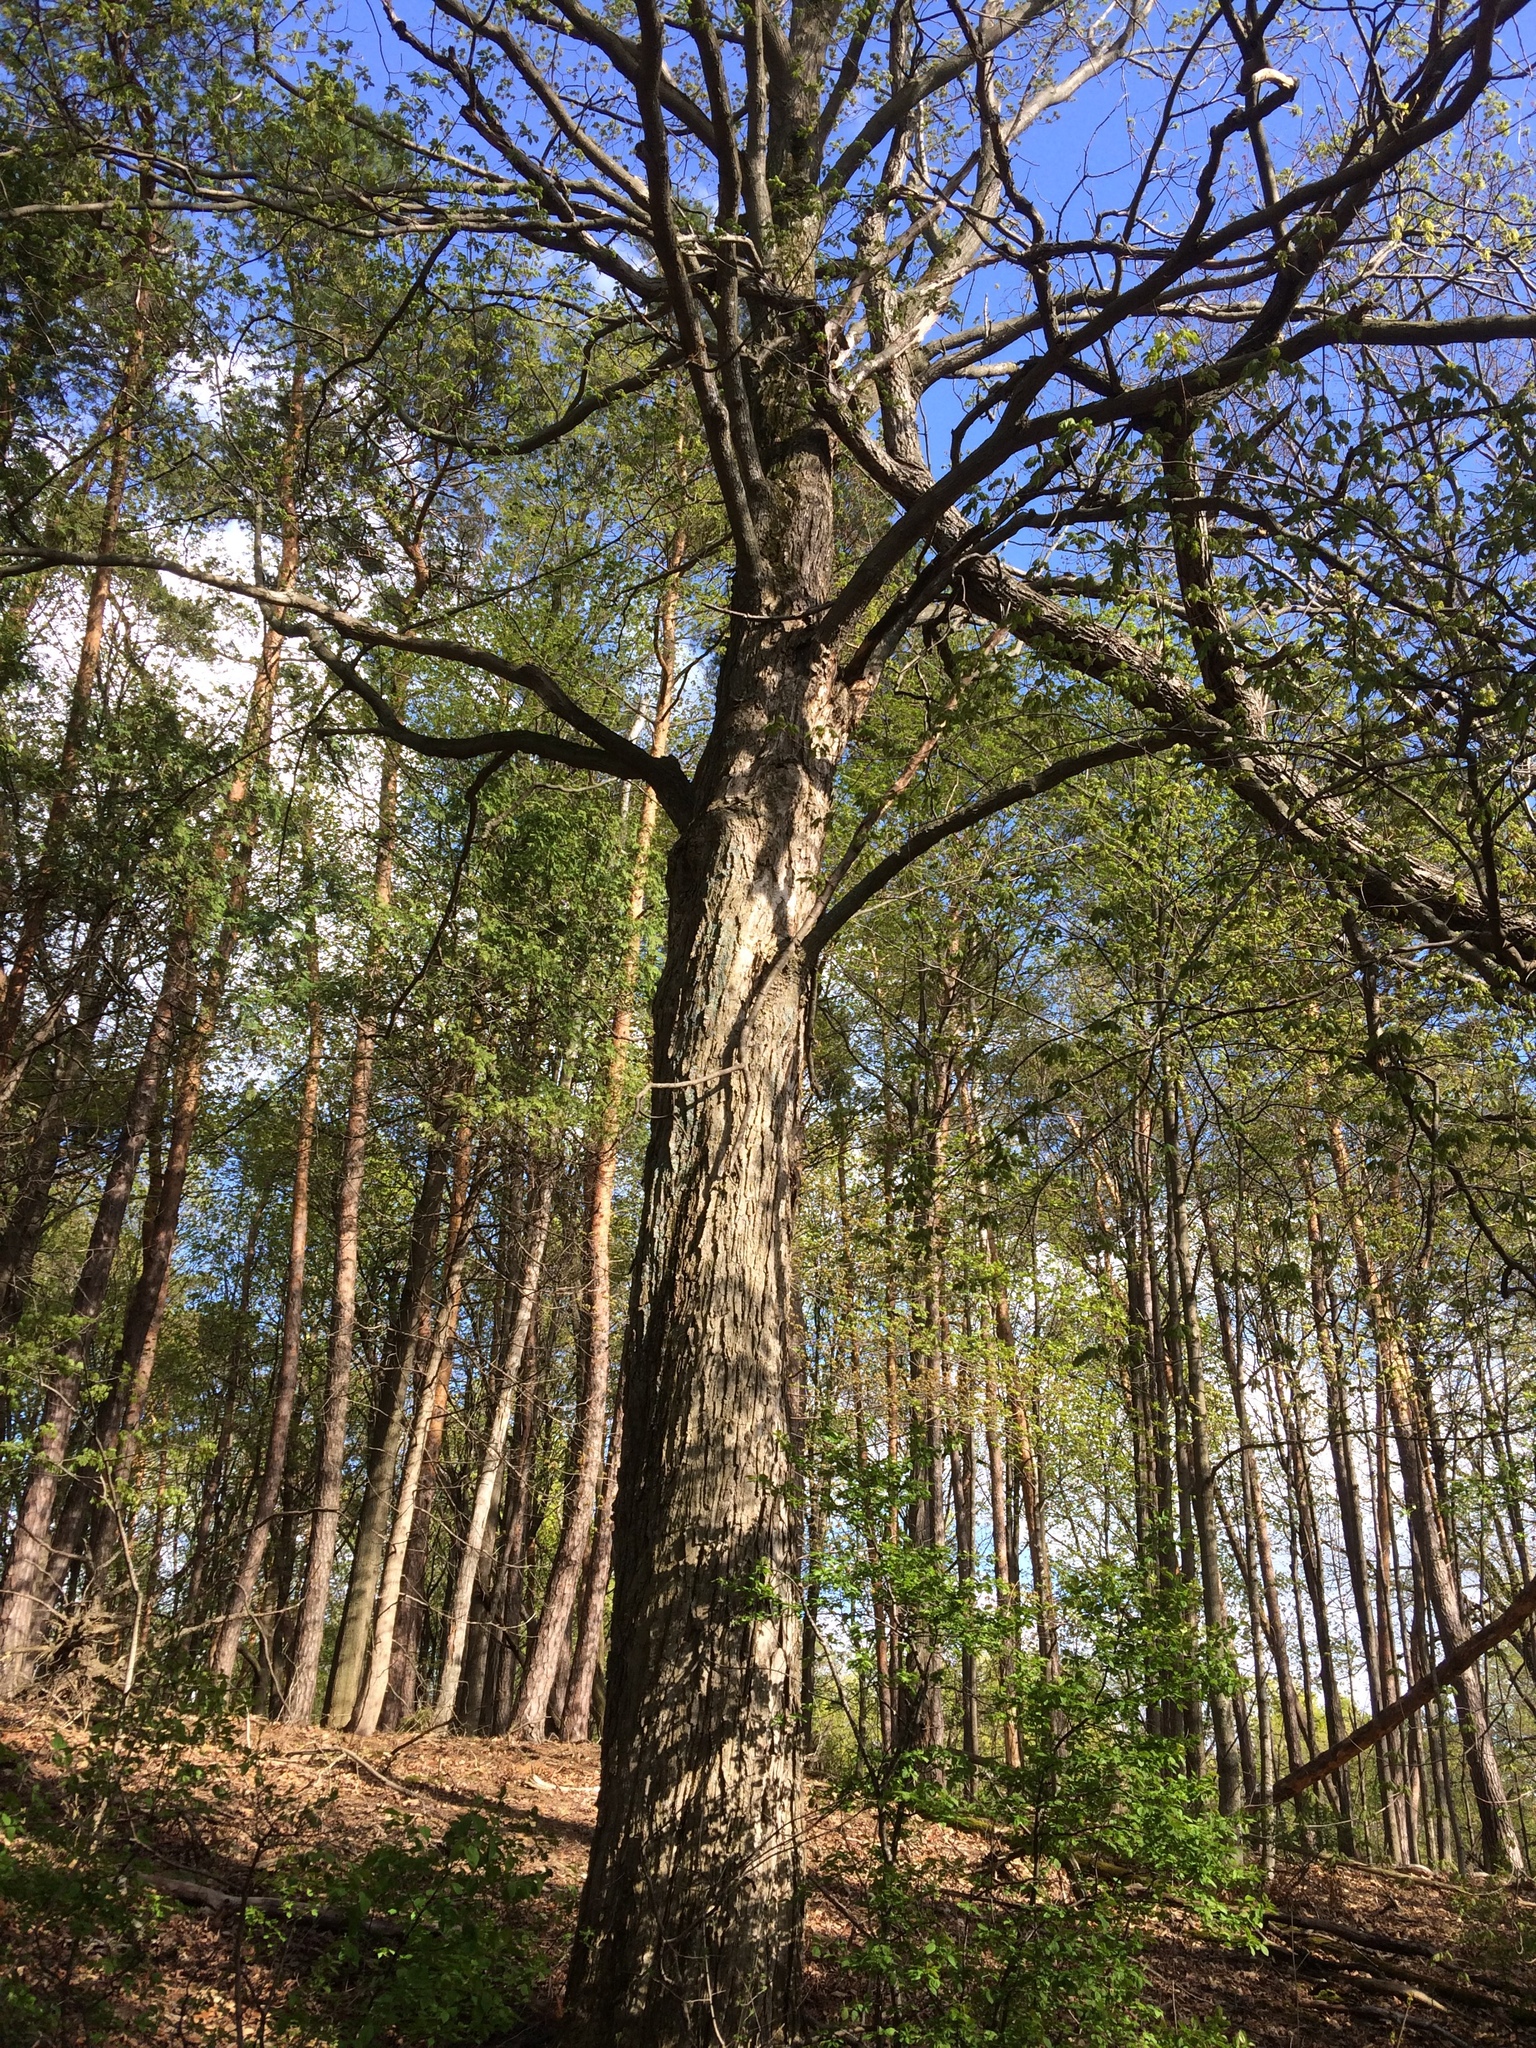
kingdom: Plantae
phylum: Tracheophyta
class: Magnoliopsida
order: Sapindales
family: Sapindaceae
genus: Acer
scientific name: Acer saccharum
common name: Sugar maple
